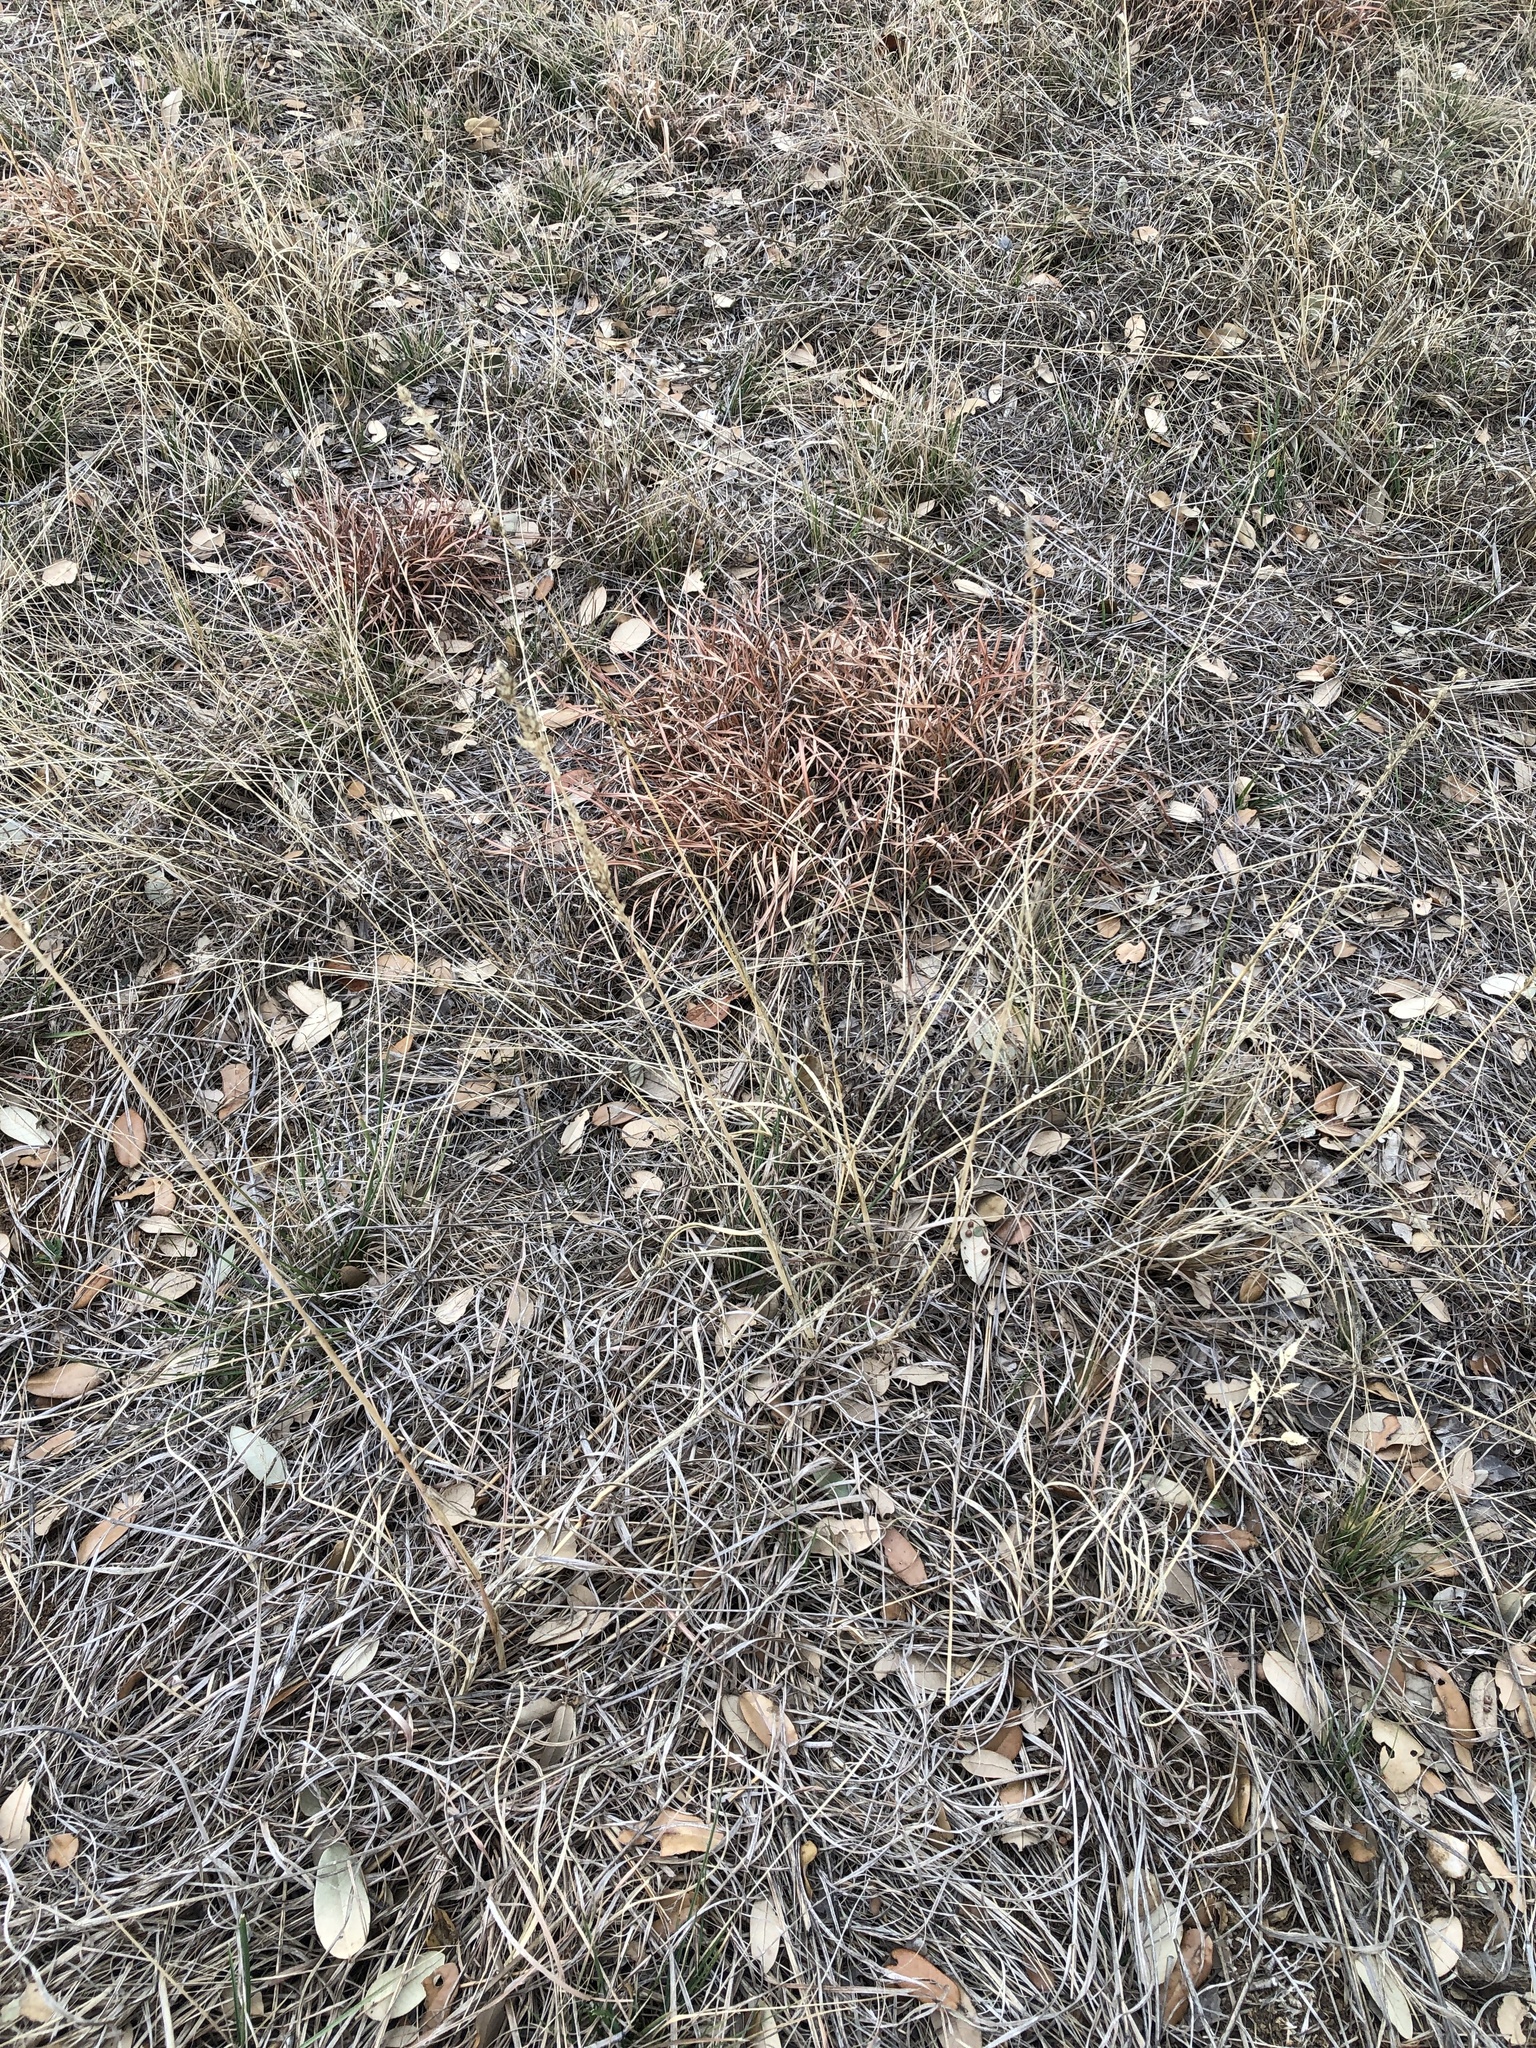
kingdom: Plantae
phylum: Tracheophyta
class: Liliopsida
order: Poales
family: Poaceae
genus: Eragrostis
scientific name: Eragrostis superba
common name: Wilman lovegrass
